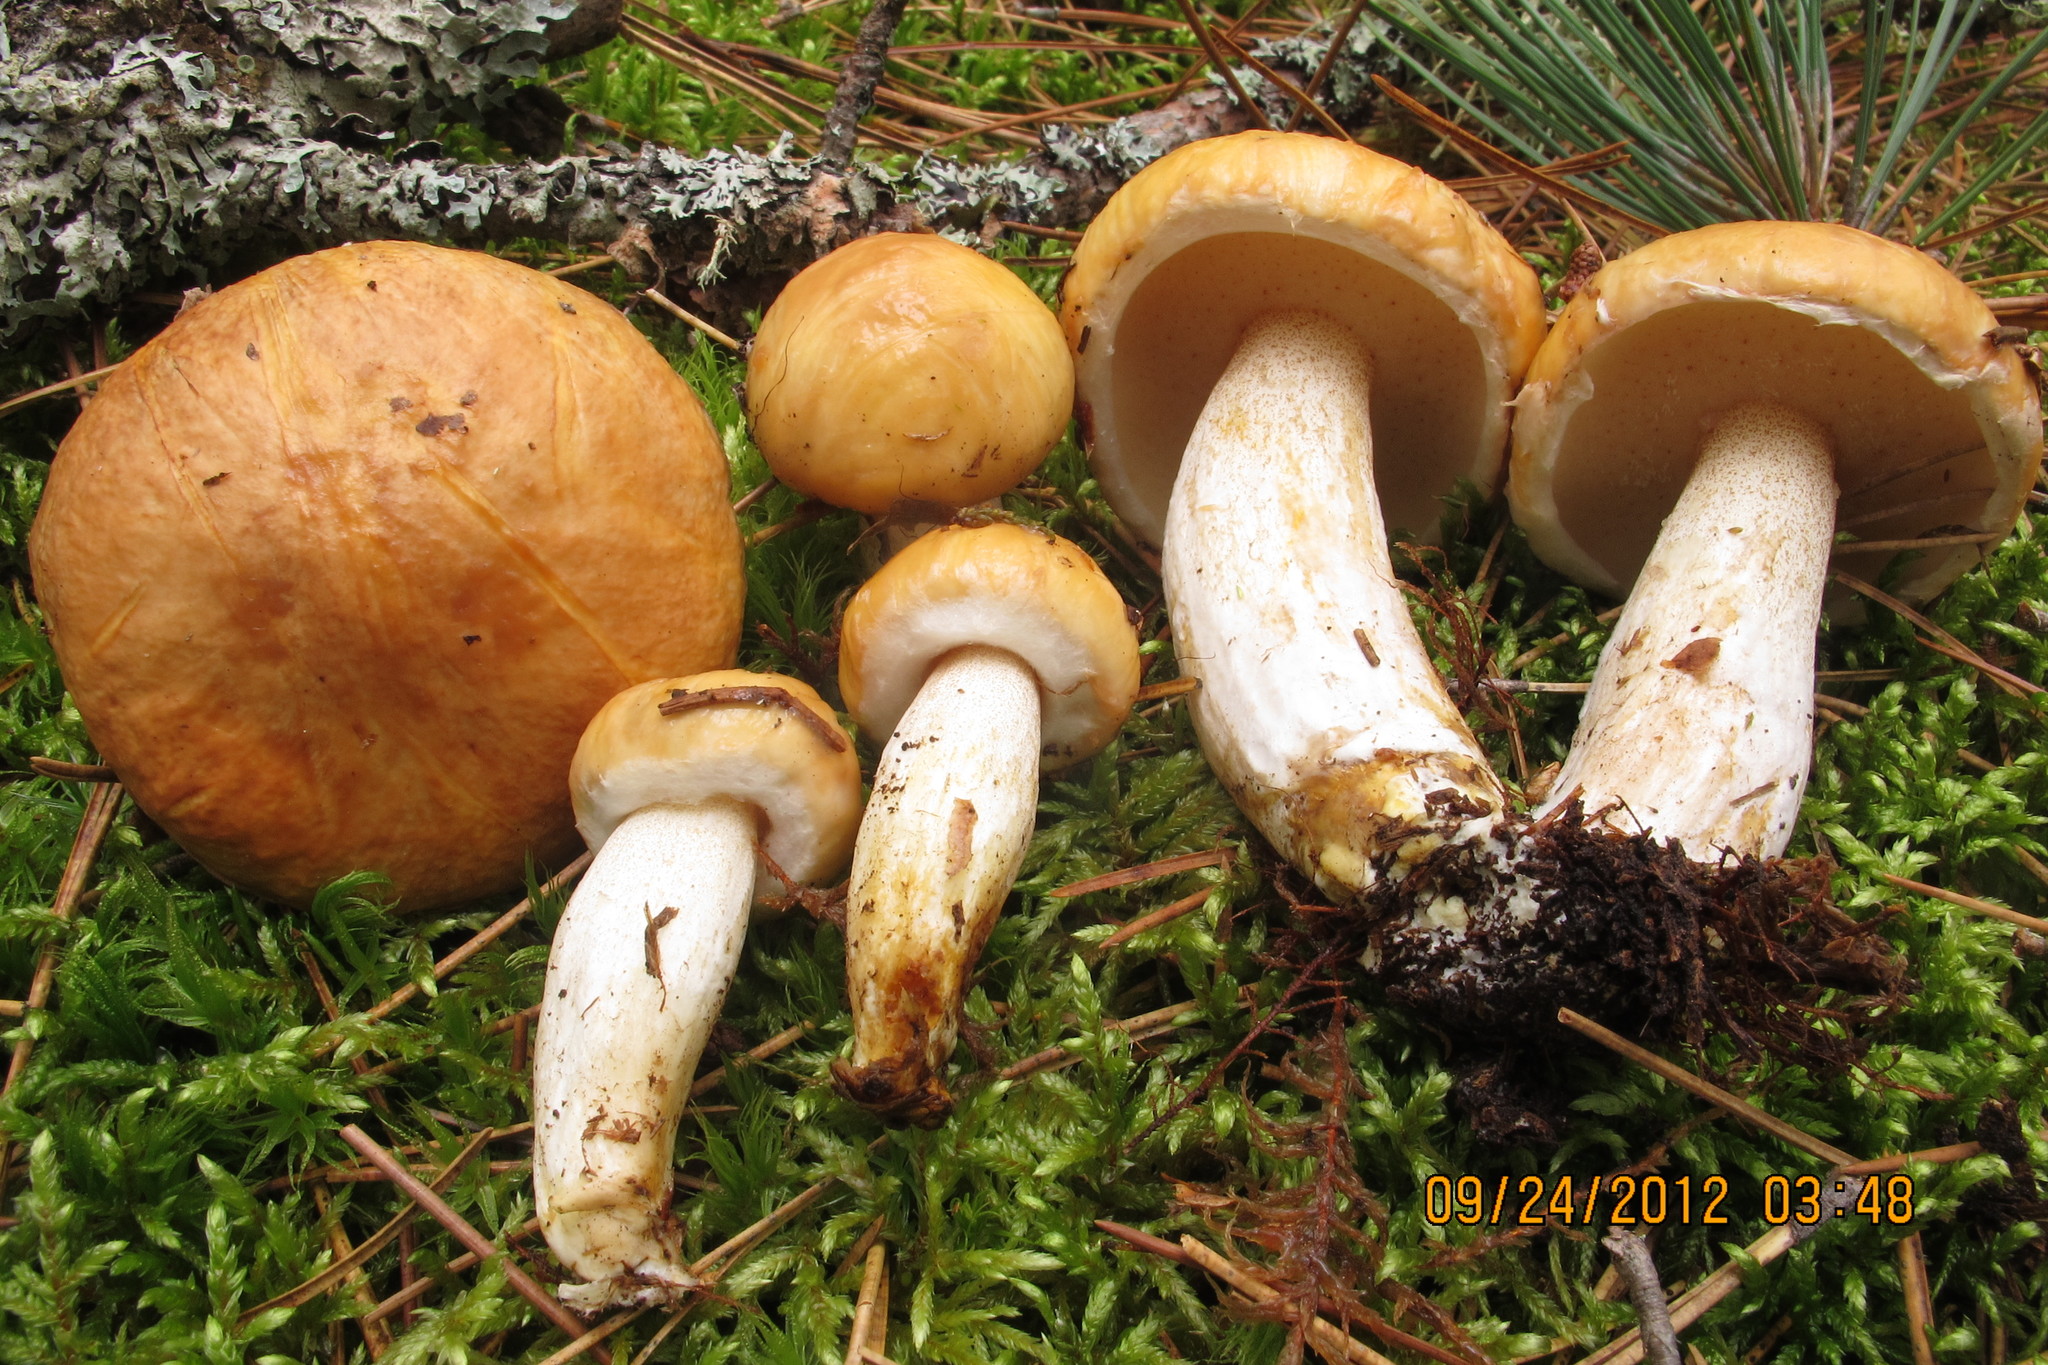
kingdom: Fungi
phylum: Basidiomycota
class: Agaricomycetes
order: Boletales
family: Suillaceae
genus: Suillus
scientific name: Suillus neoalbidipes
